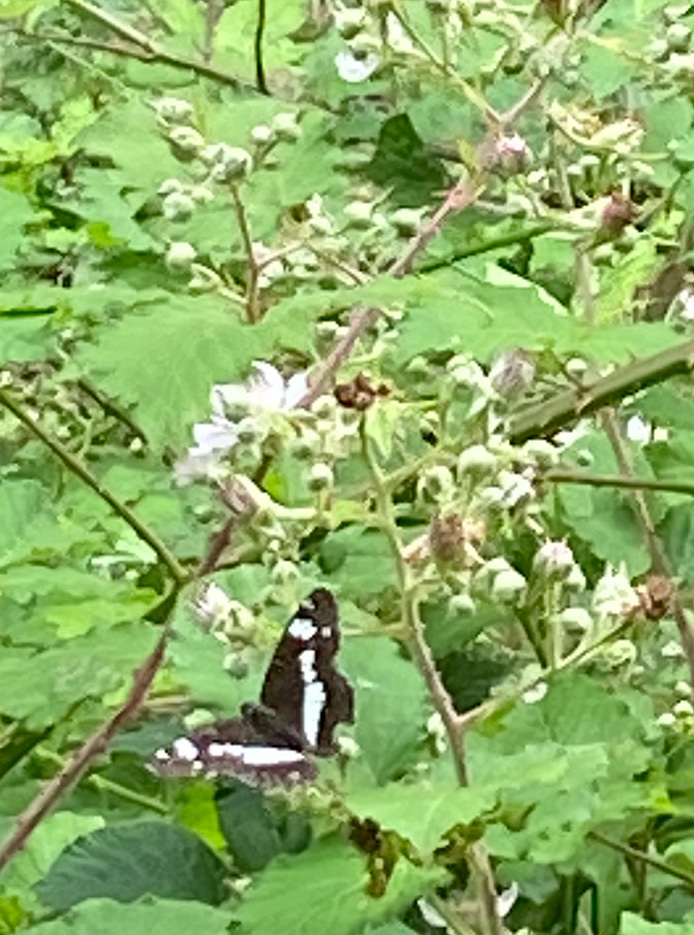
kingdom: Animalia
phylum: Arthropoda
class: Insecta
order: Lepidoptera
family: Nymphalidae
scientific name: Nymphalidae
